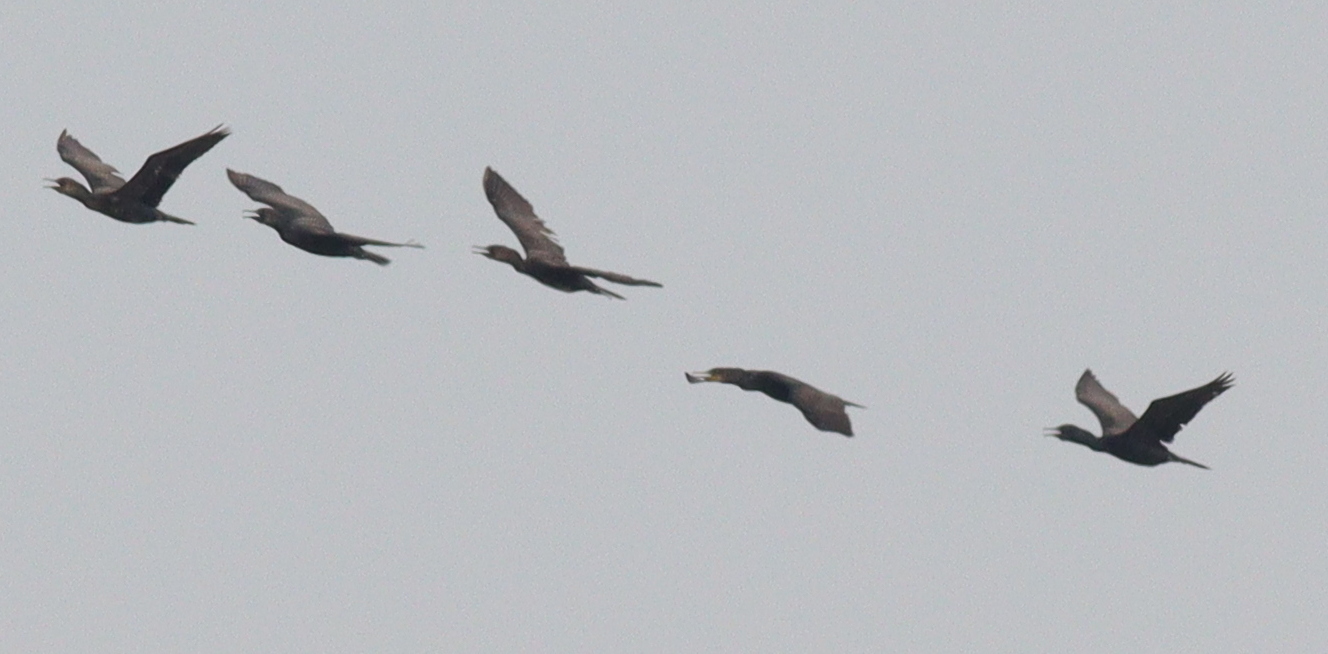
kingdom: Animalia
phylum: Chordata
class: Aves
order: Suliformes
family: Phalacrocoracidae
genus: Microcarbo
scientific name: Microcarbo niger
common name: Little cormorant
